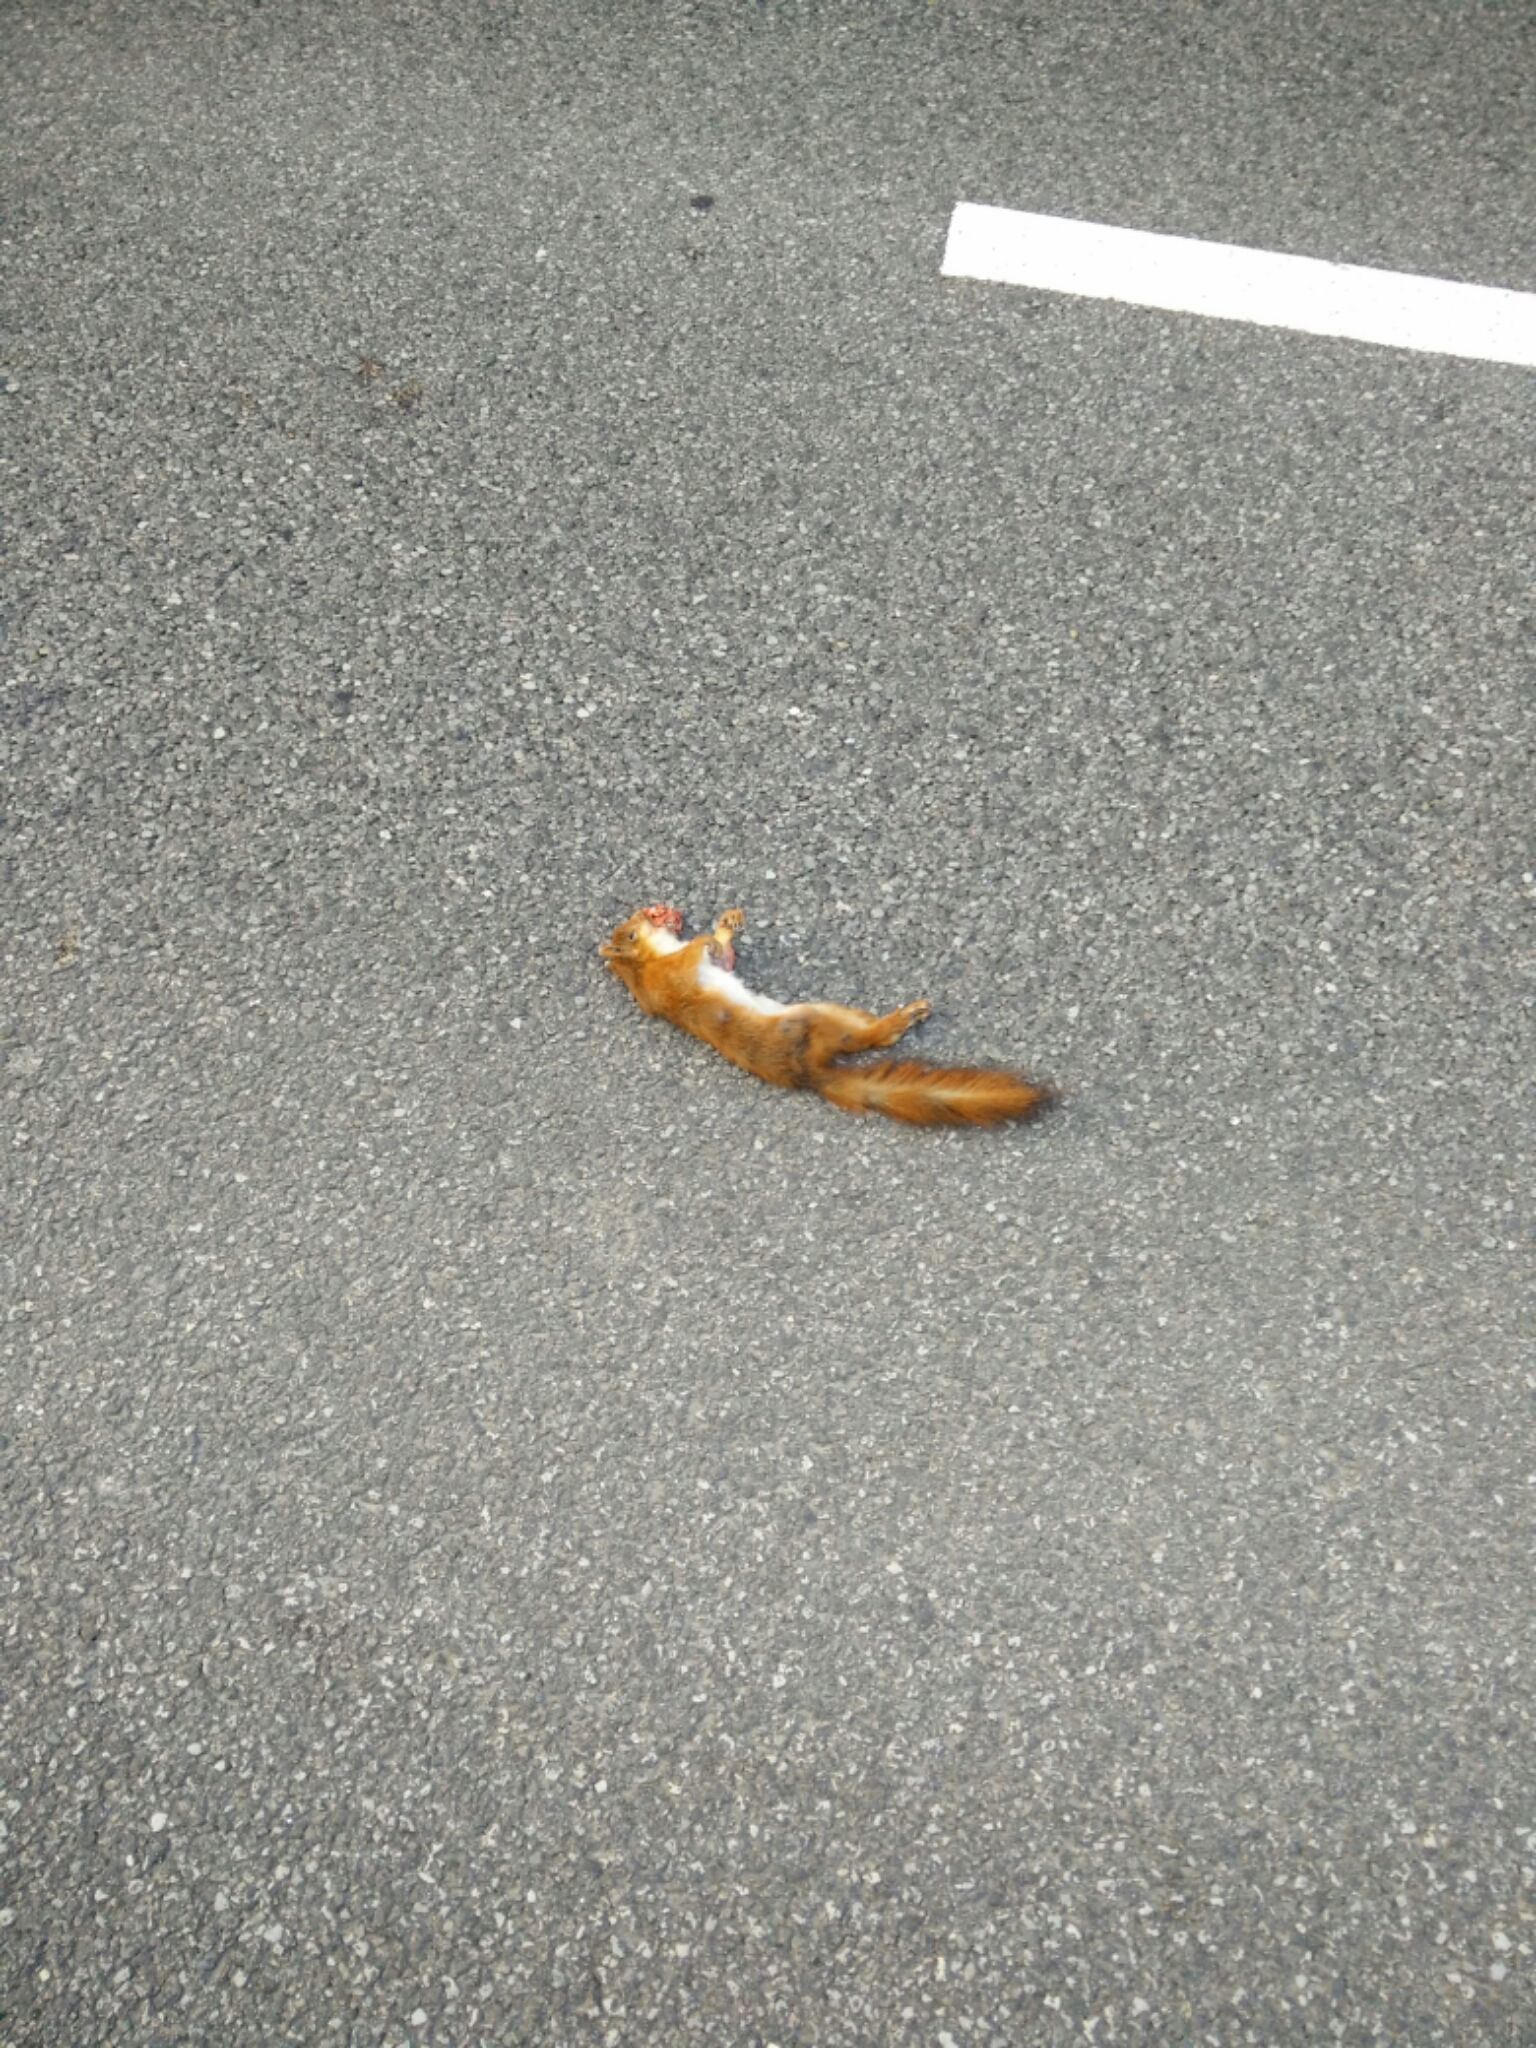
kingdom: Animalia
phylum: Chordata
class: Mammalia
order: Rodentia
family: Sciuridae
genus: Sciurus
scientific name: Sciurus vulgaris
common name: Eurasian red squirrel
